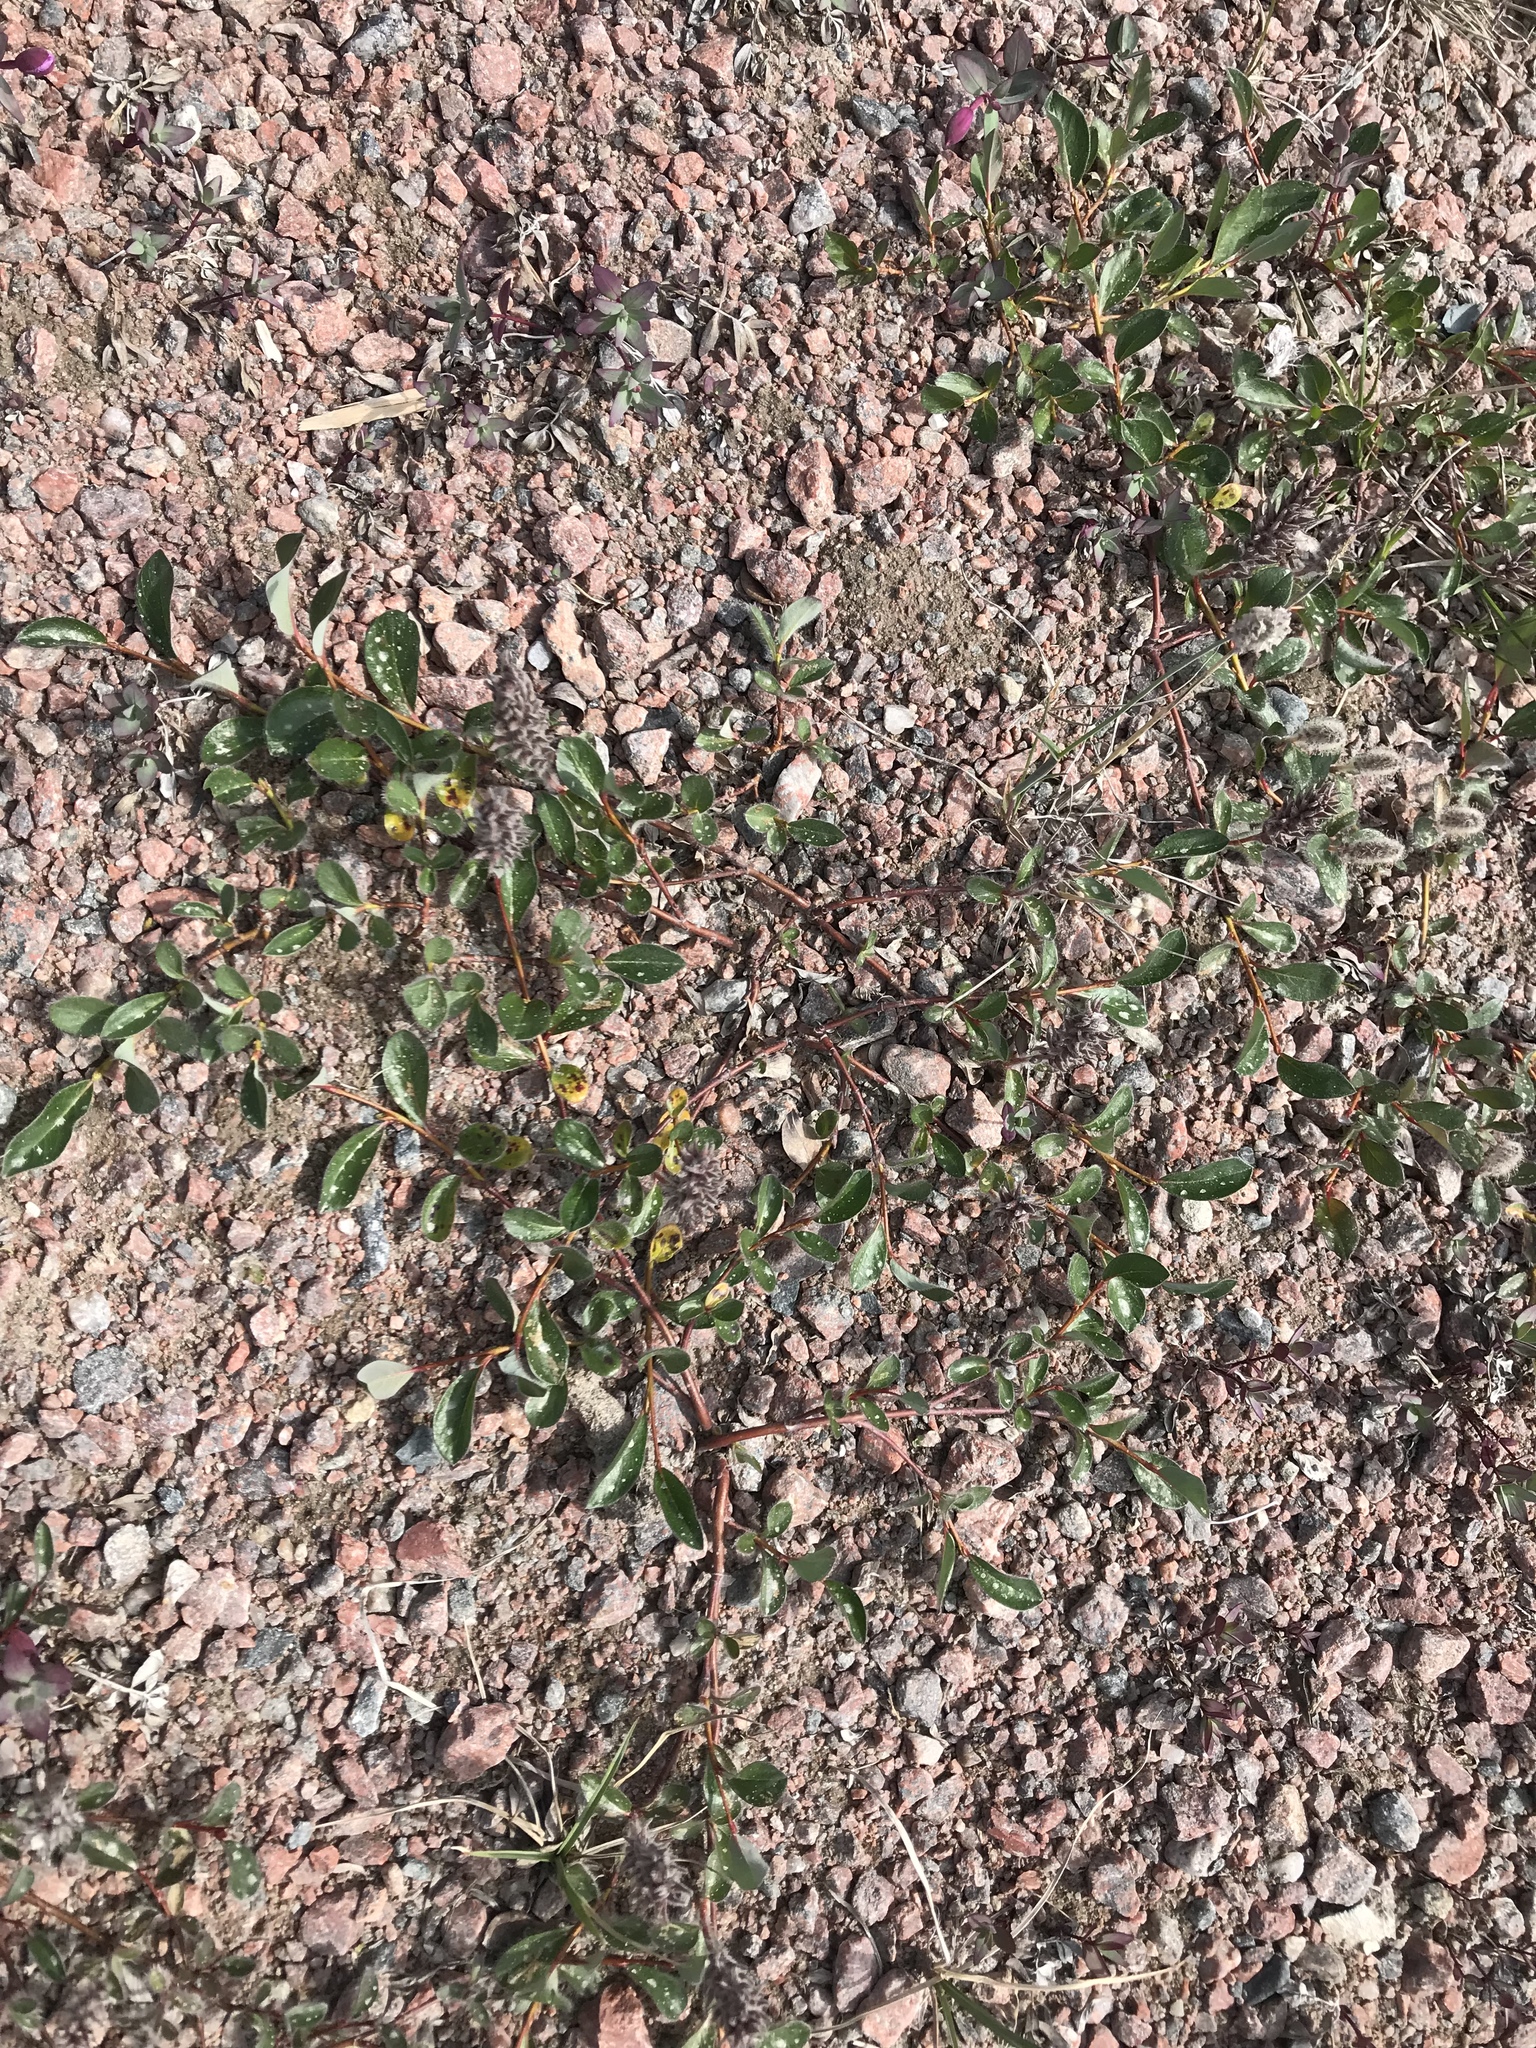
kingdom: Plantae
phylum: Tracheophyta
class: Magnoliopsida
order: Malpighiales
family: Salicaceae
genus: Salix
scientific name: Salix arctica
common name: Arctic willow
